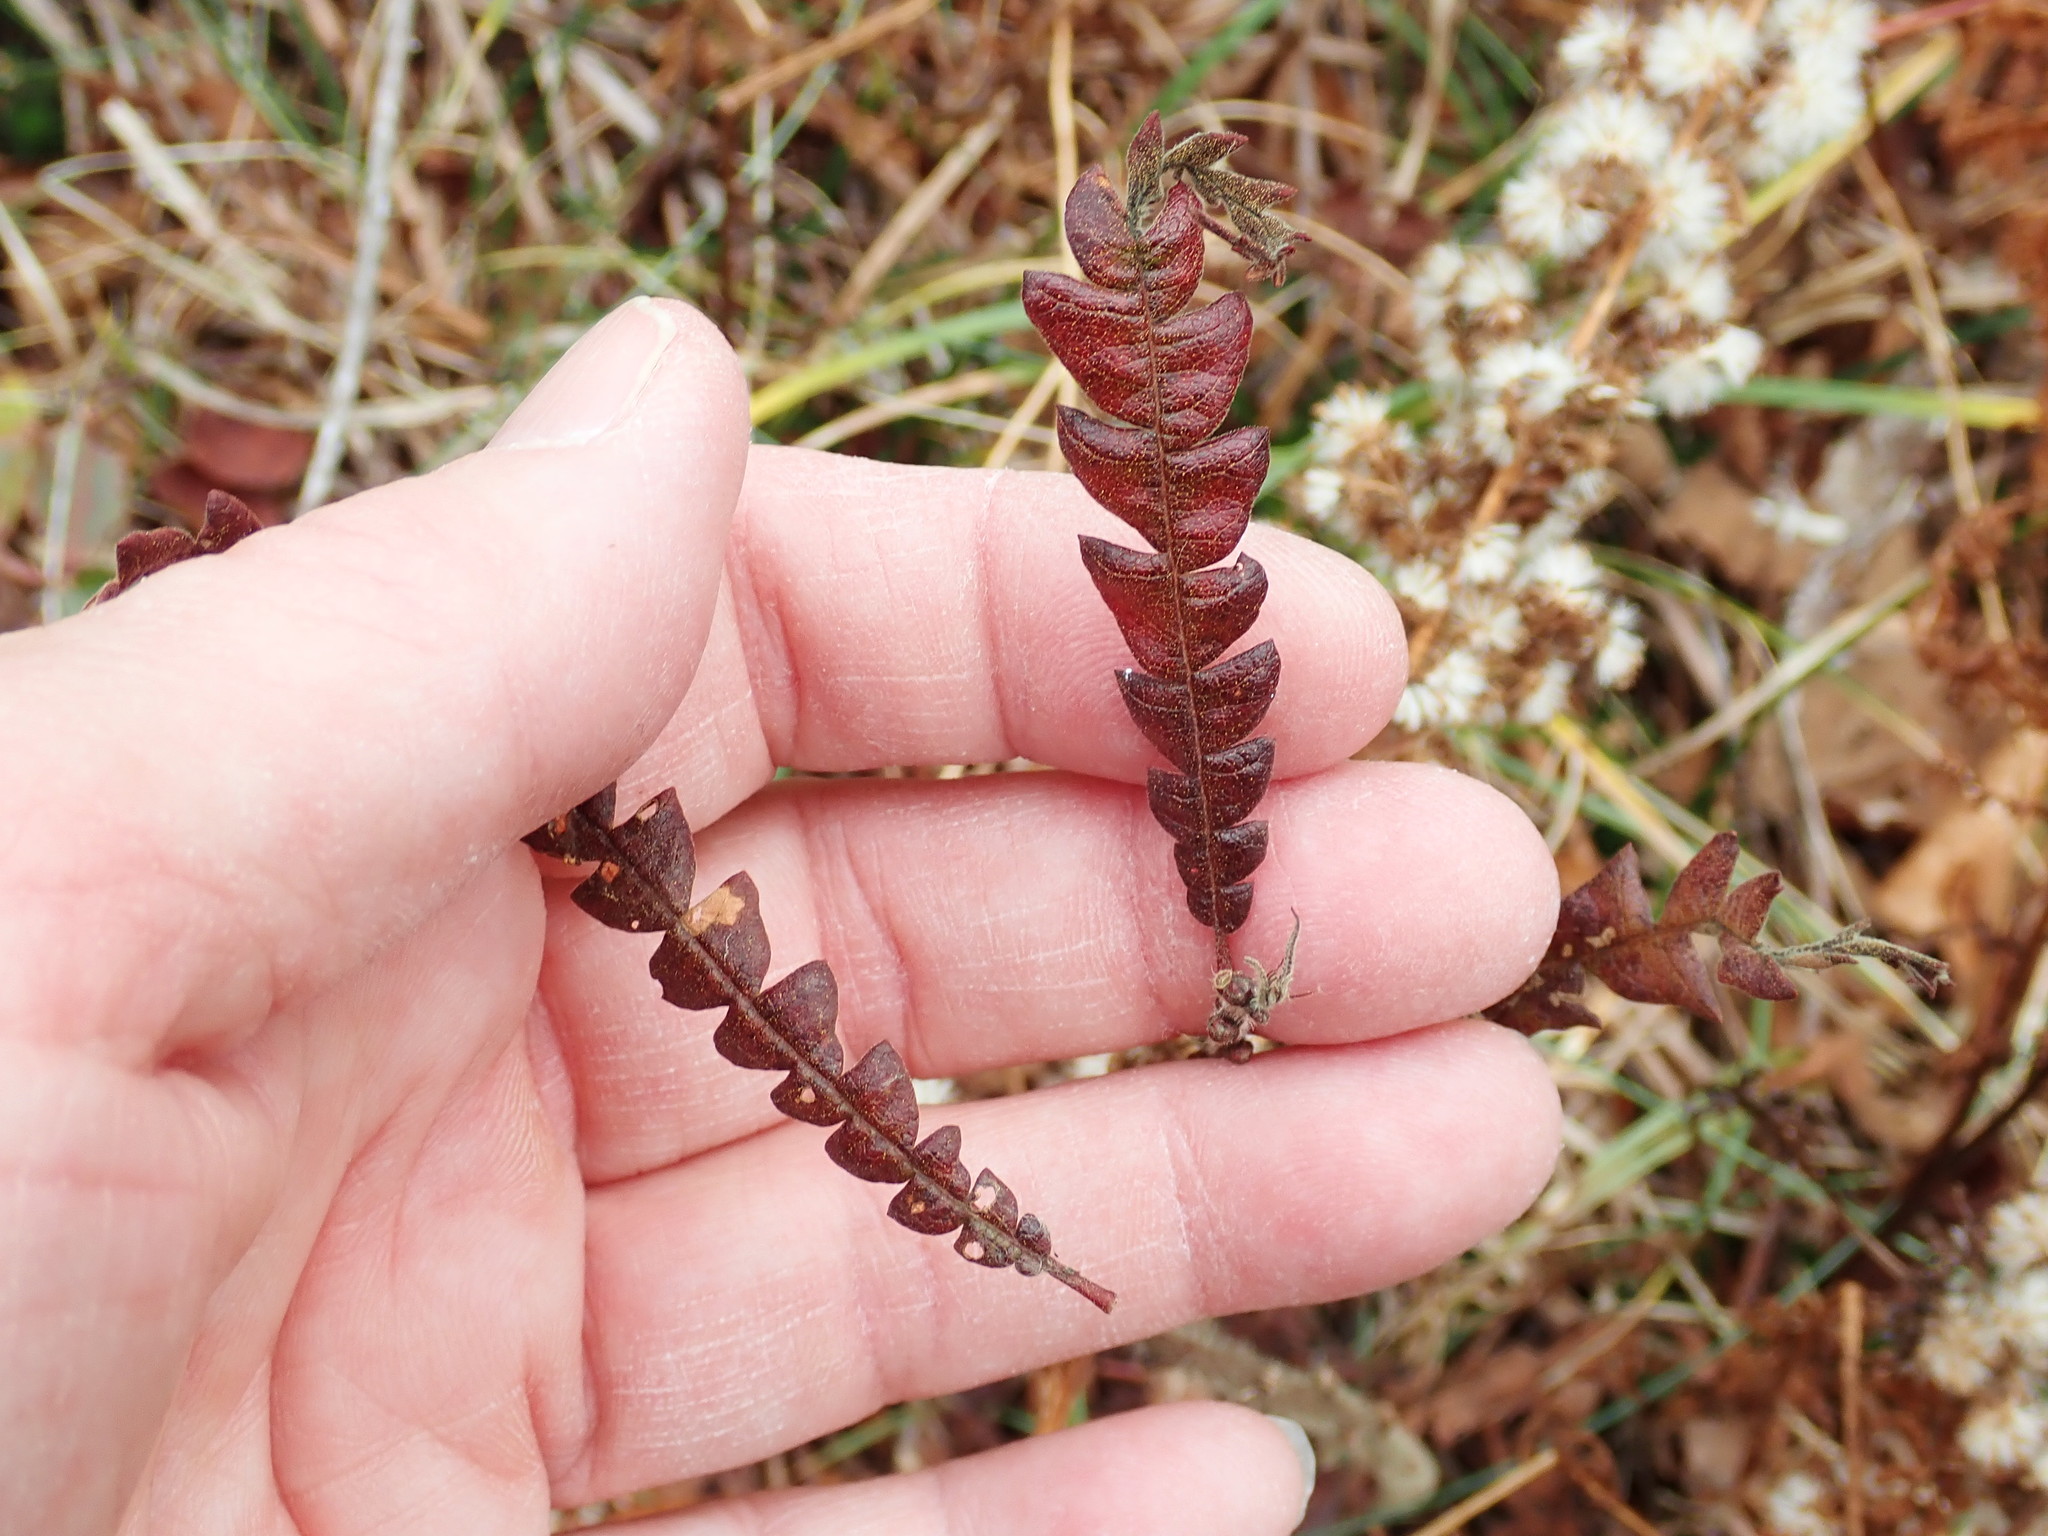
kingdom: Plantae
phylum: Tracheophyta
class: Magnoliopsida
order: Fagales
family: Myricaceae
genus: Comptonia
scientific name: Comptonia peregrina
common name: Sweet-fern
